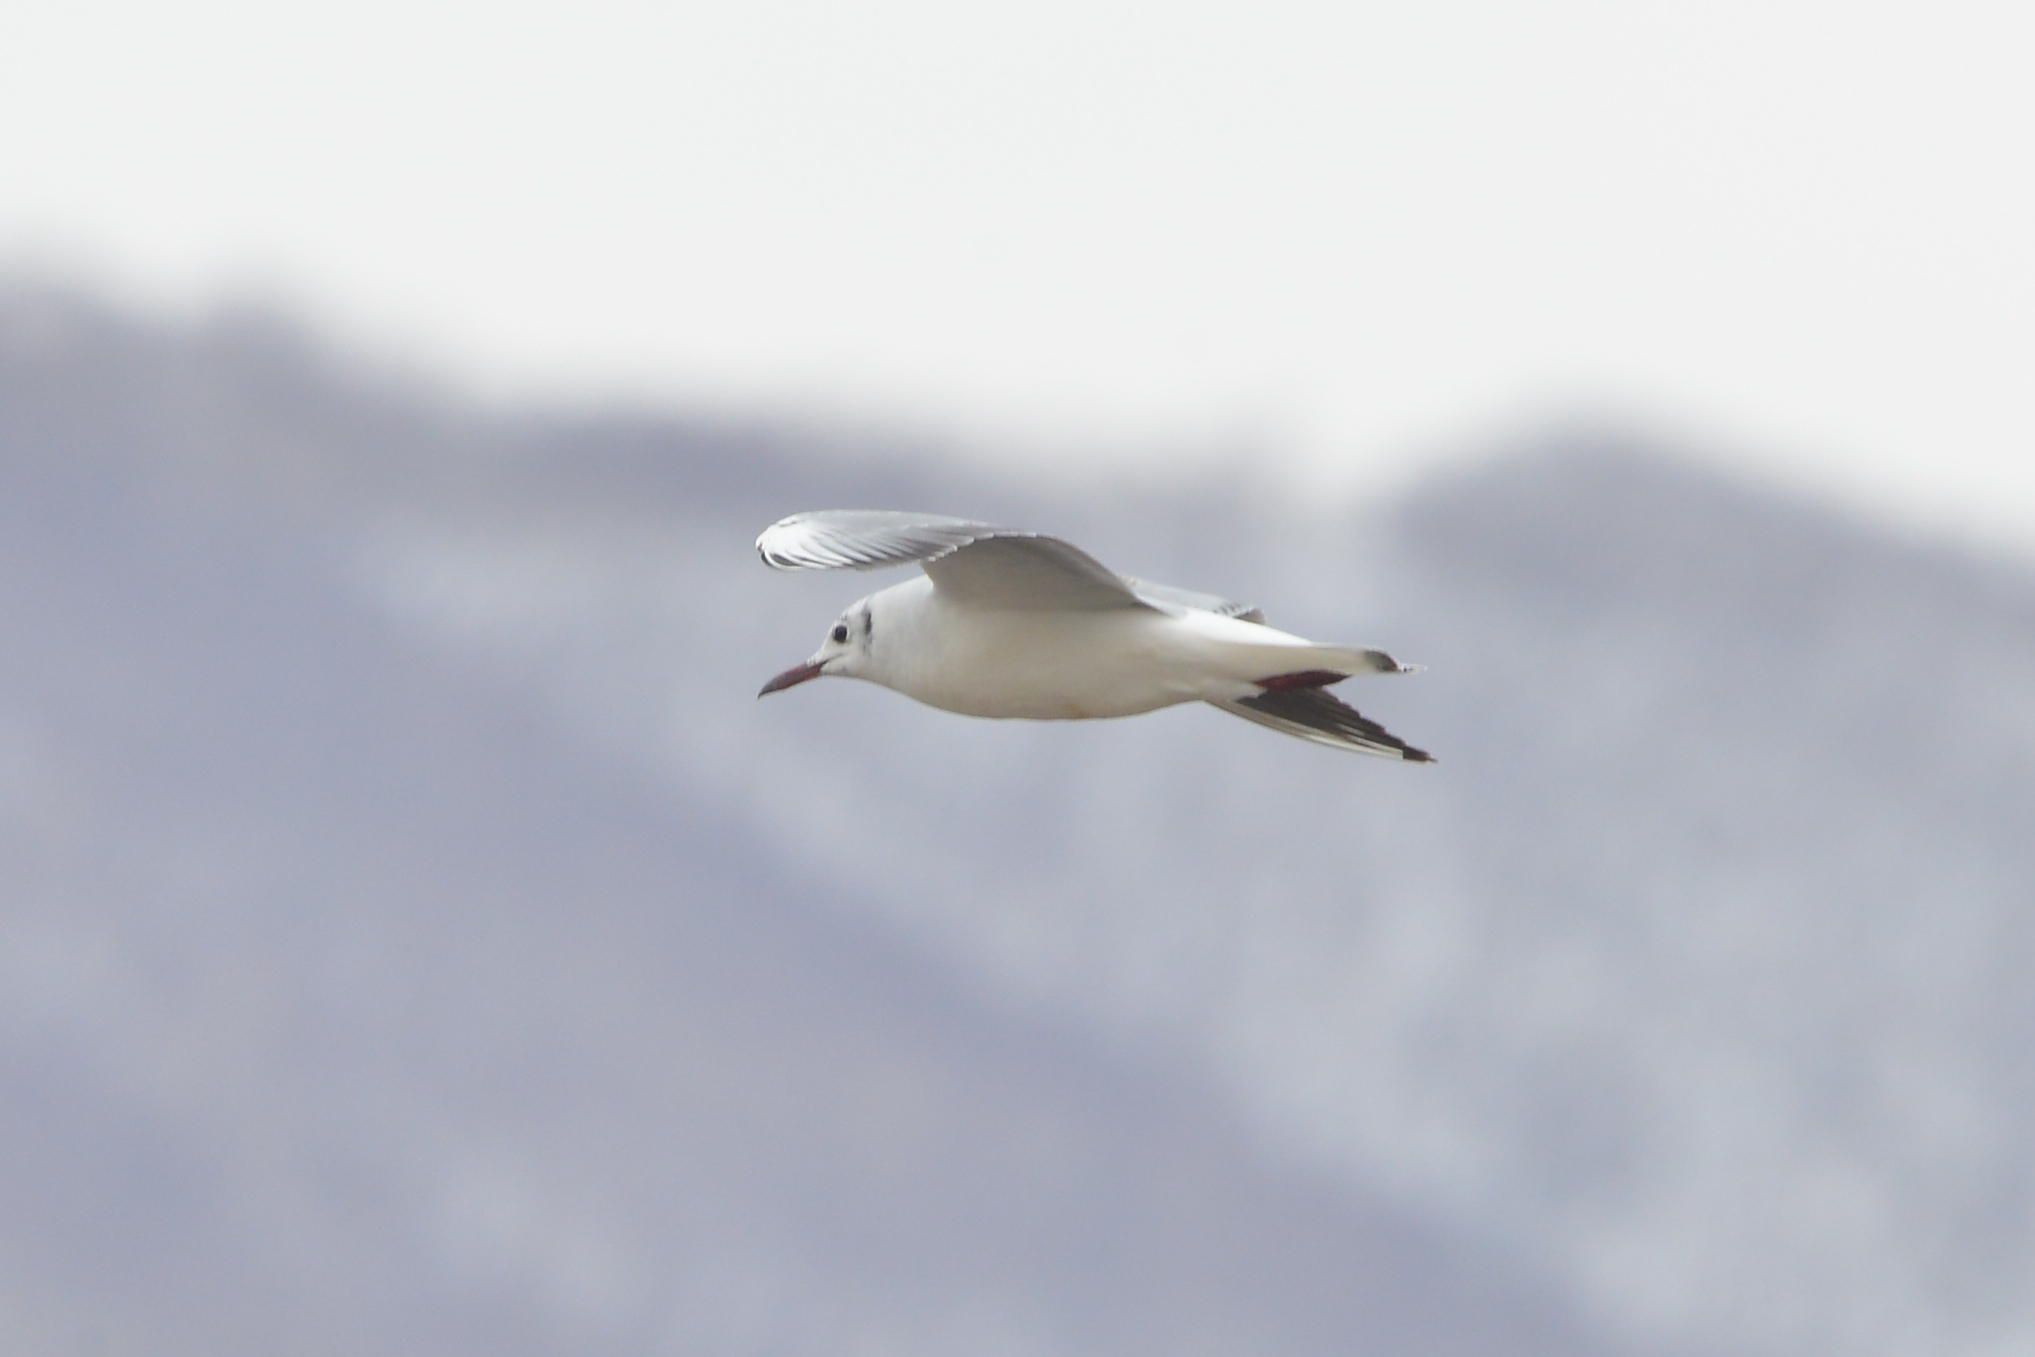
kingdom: Animalia
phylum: Chordata
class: Aves
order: Charadriiformes
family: Laridae
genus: Chroicocephalus
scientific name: Chroicocephalus ridibundus
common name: Black-headed gull
